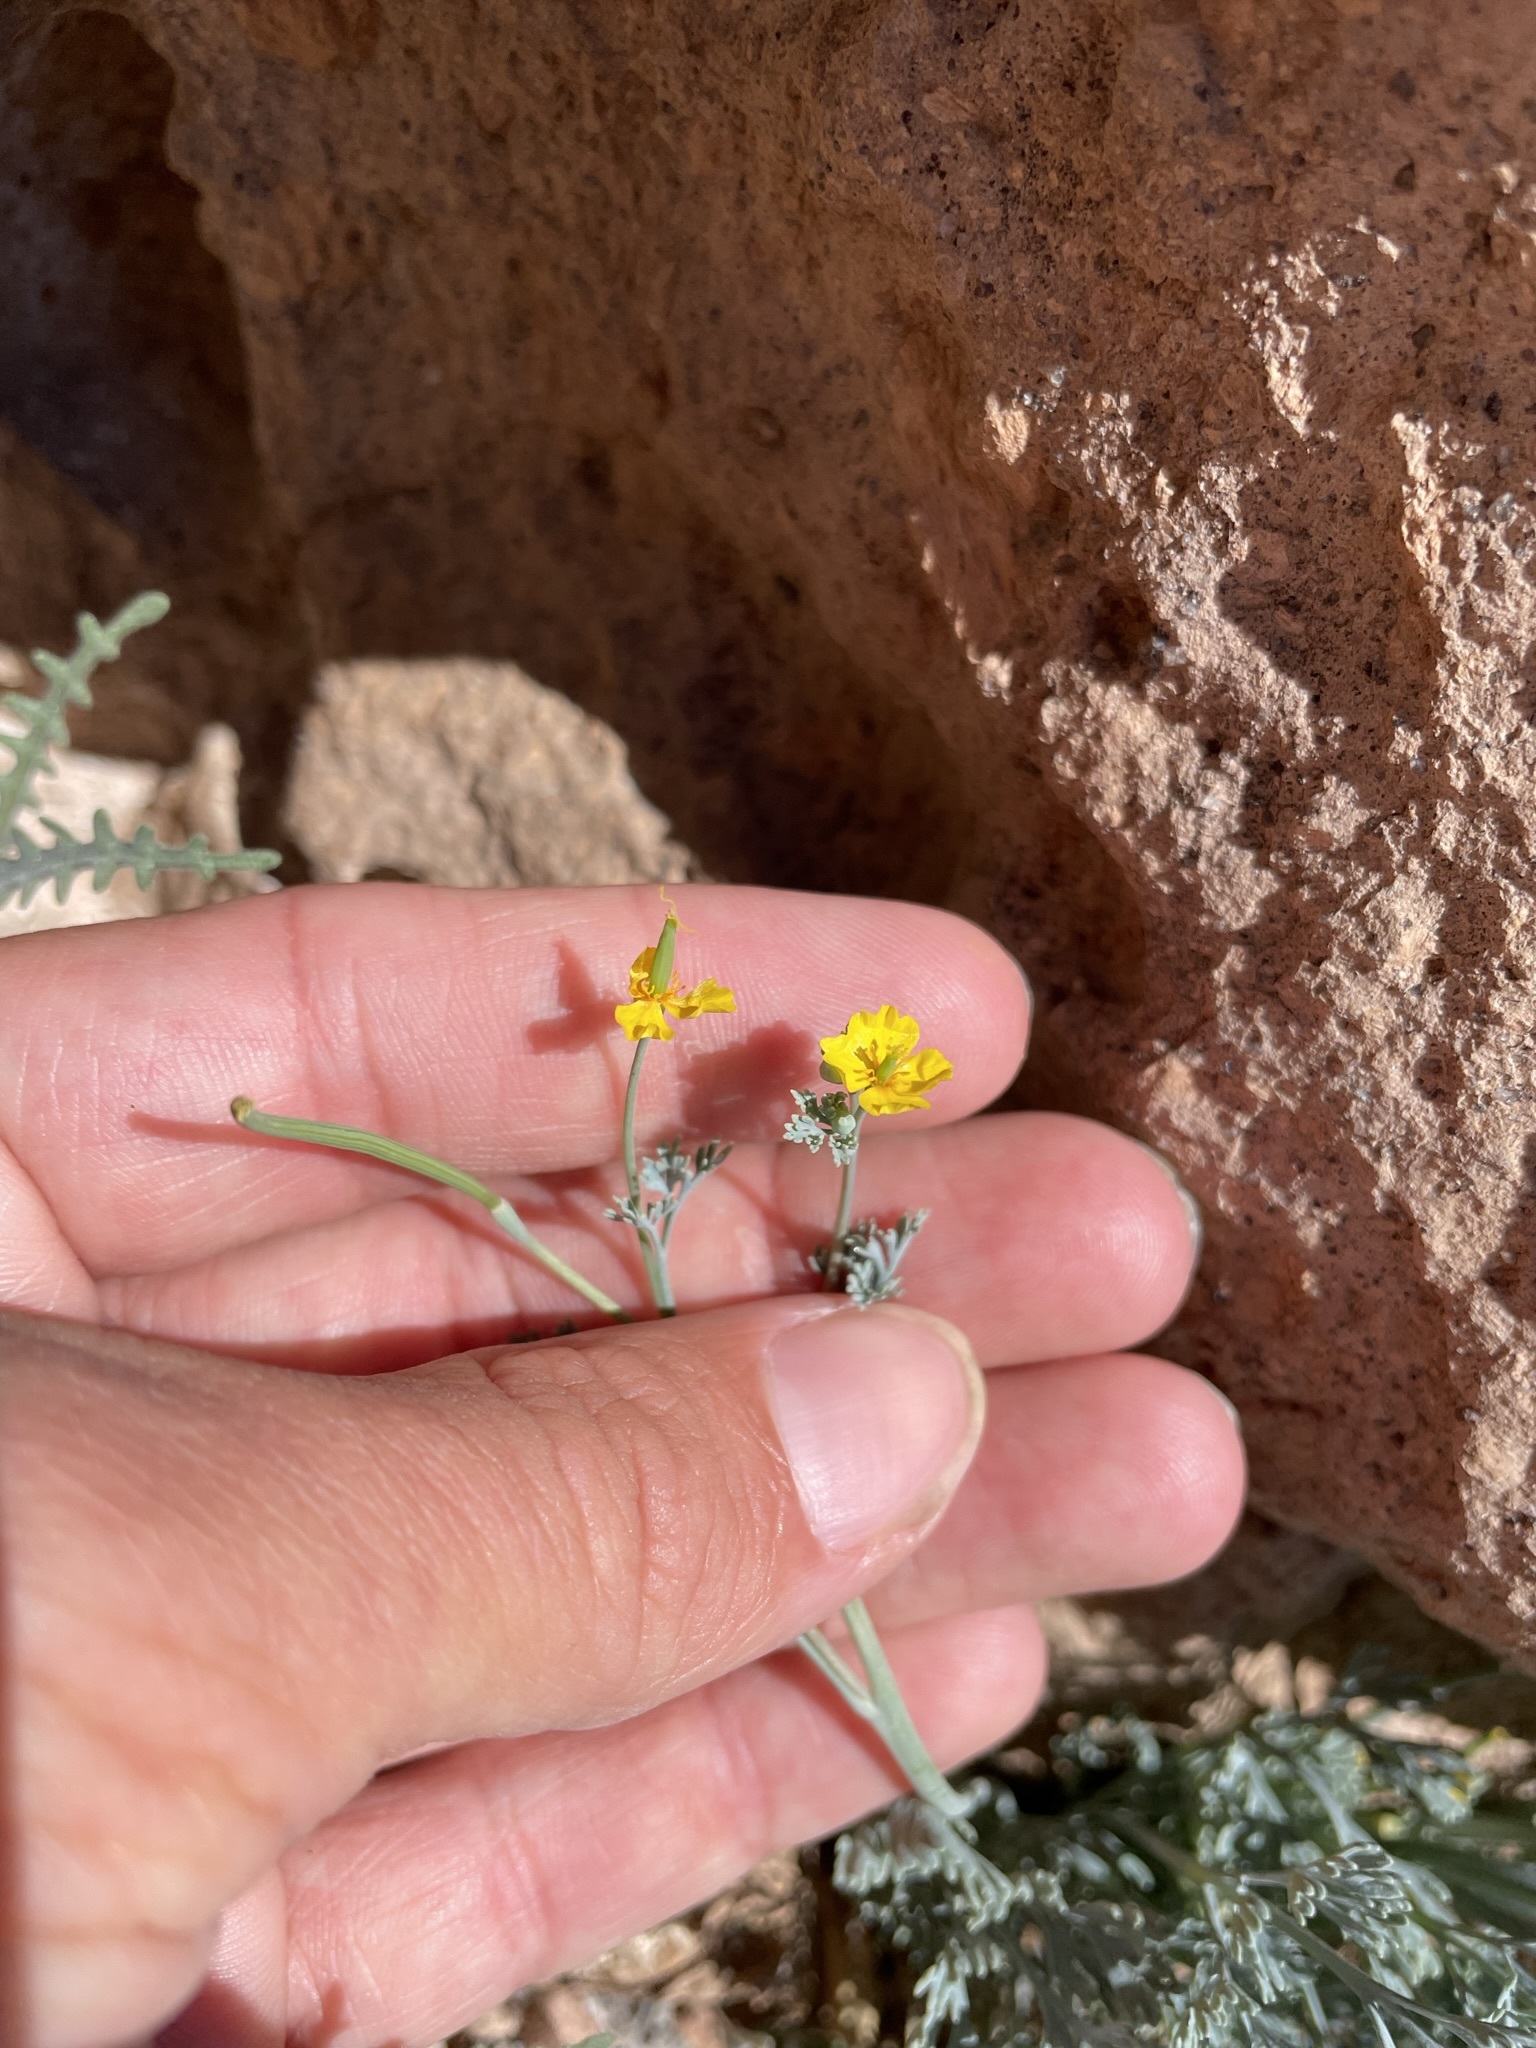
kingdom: Plantae
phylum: Tracheophyta
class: Magnoliopsida
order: Ranunculales
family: Papaveraceae
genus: Eschscholzia
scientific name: Eschscholzia minutiflora
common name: Small-flower california-poppy
